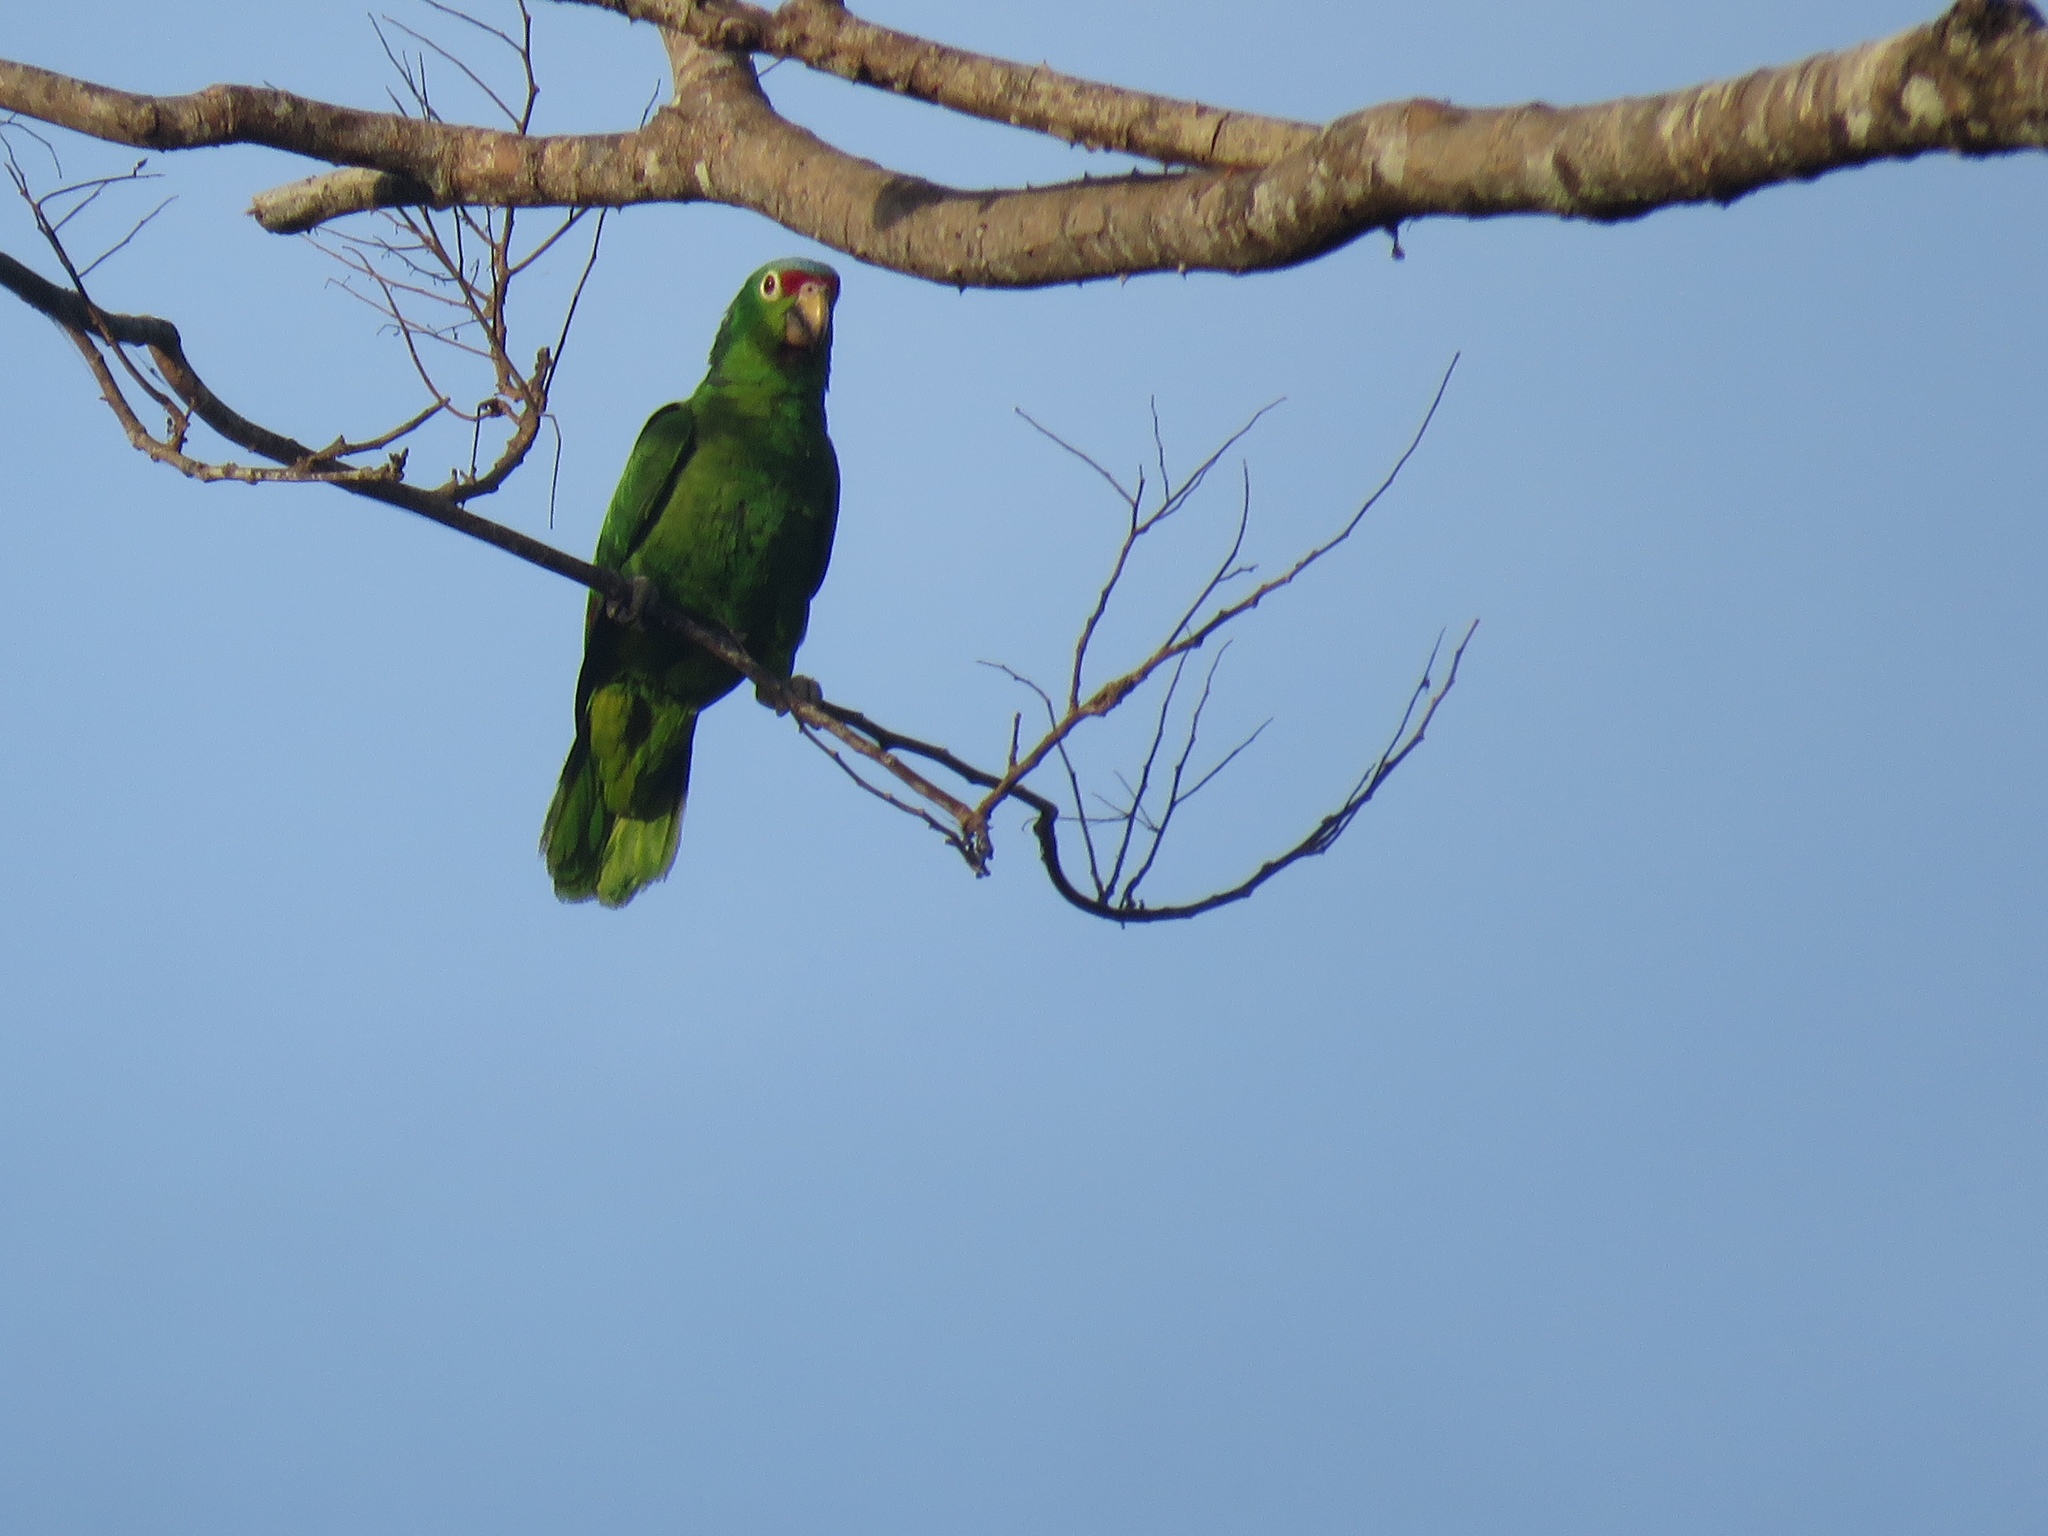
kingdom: Animalia
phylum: Chordata
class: Aves
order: Psittaciformes
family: Psittacidae
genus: Amazona
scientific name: Amazona autumnalis
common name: Red-lored amazon
